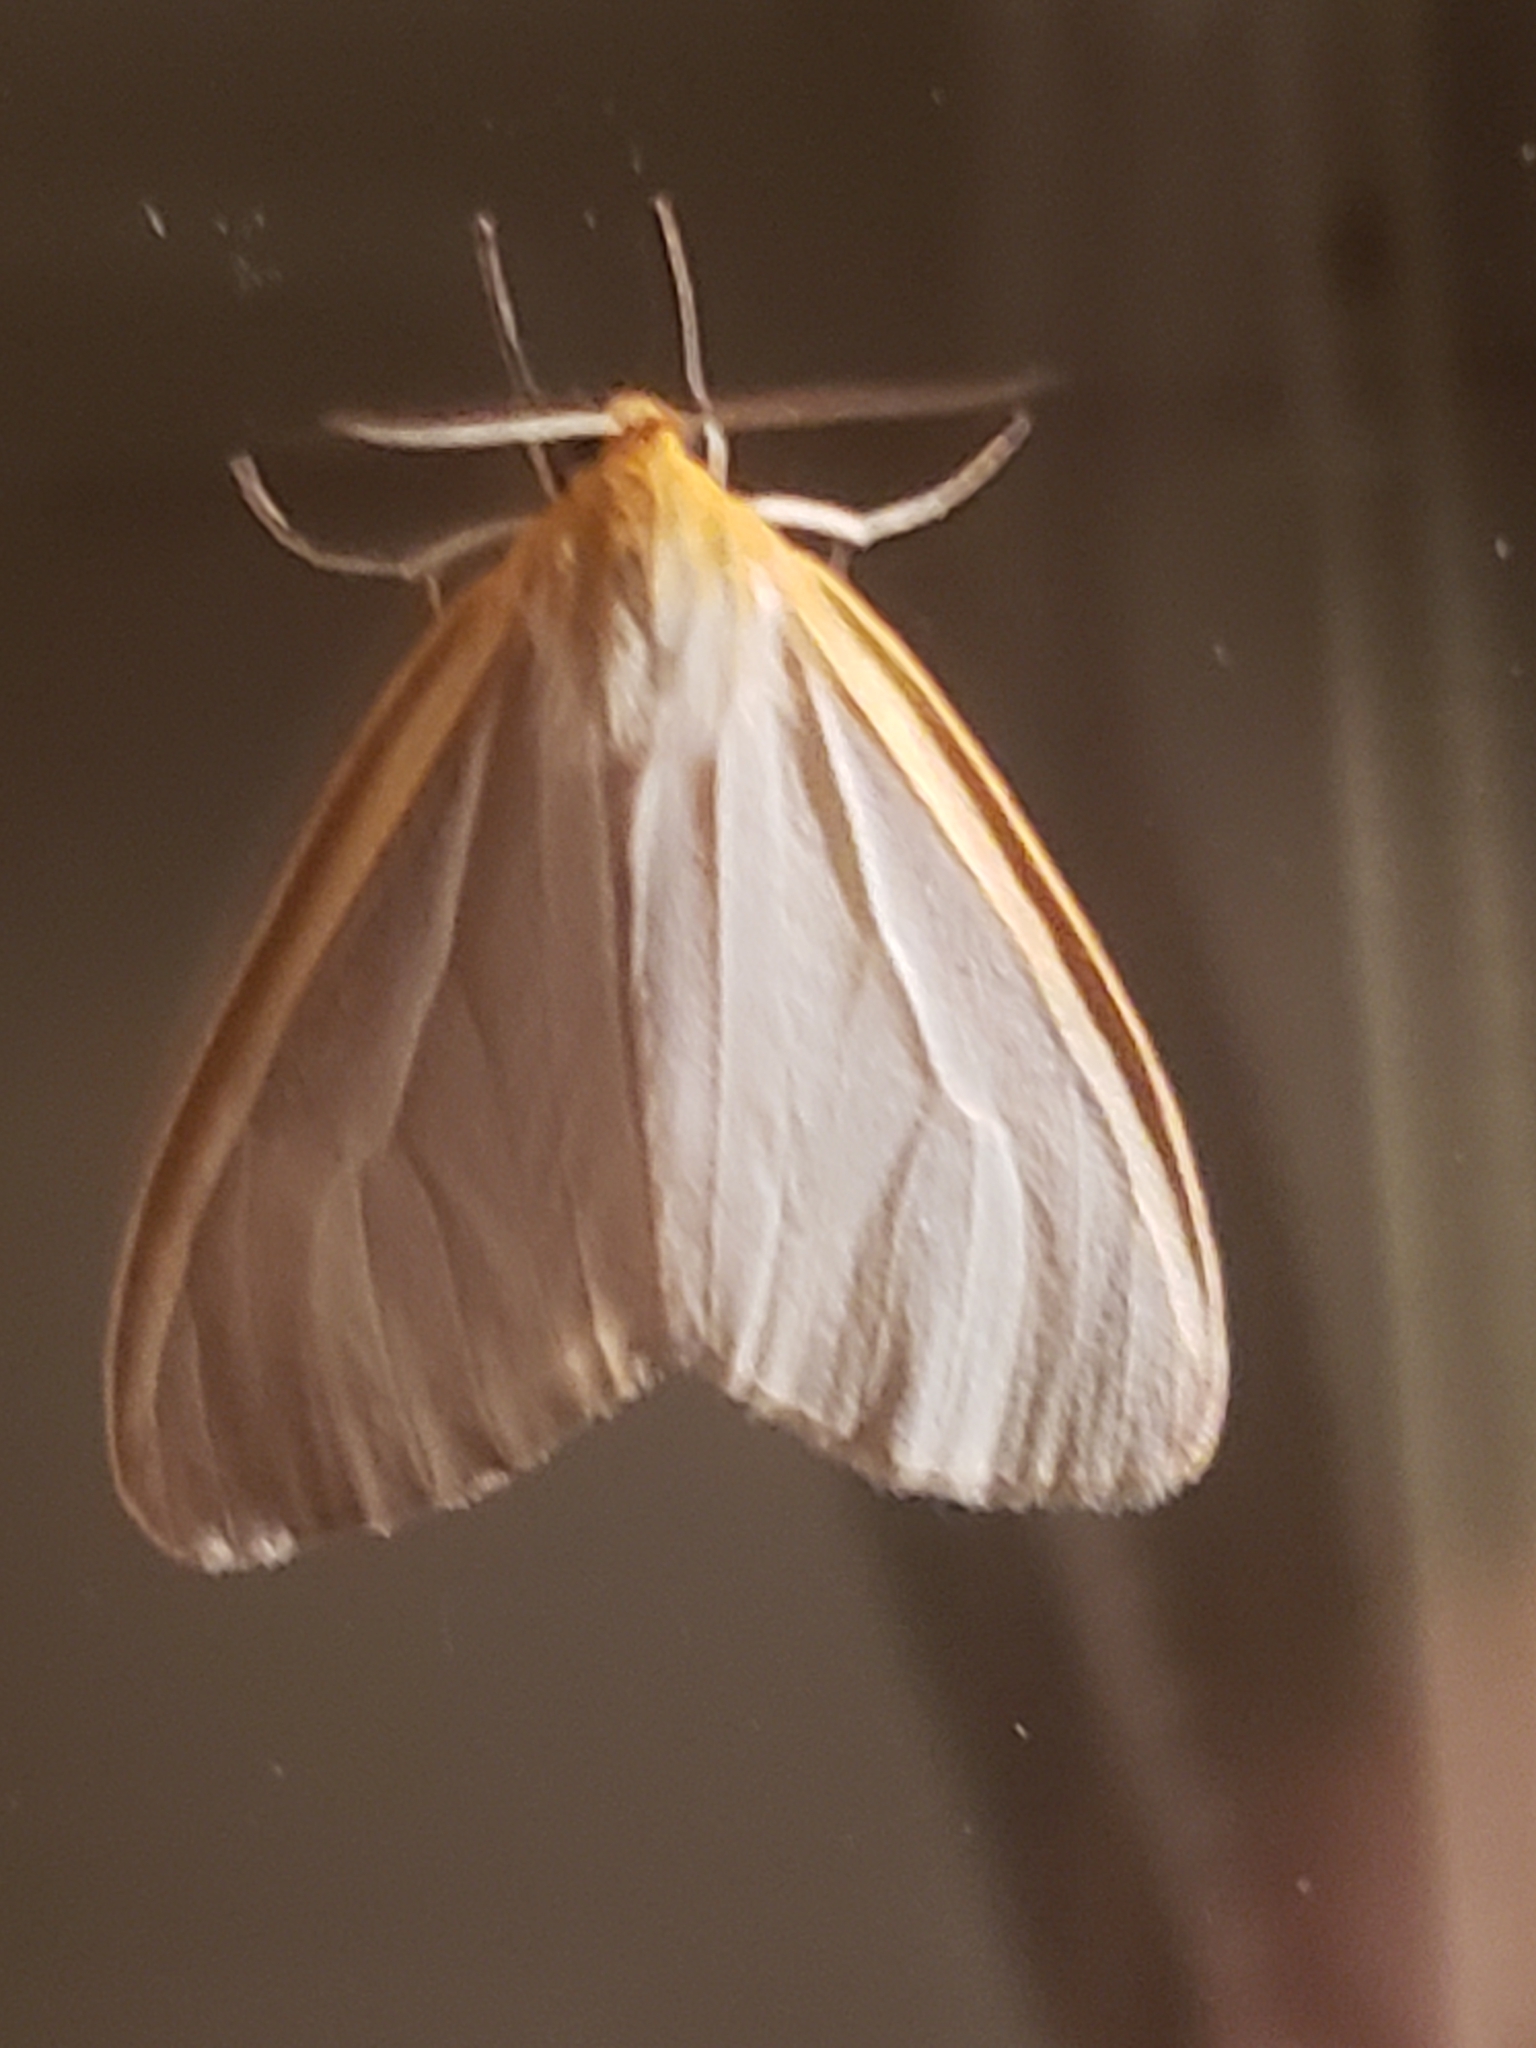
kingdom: Animalia
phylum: Arthropoda
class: Insecta
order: Lepidoptera
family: Erebidae
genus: Cycnia
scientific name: Cycnia tenera
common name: Delicate cycnia moth
